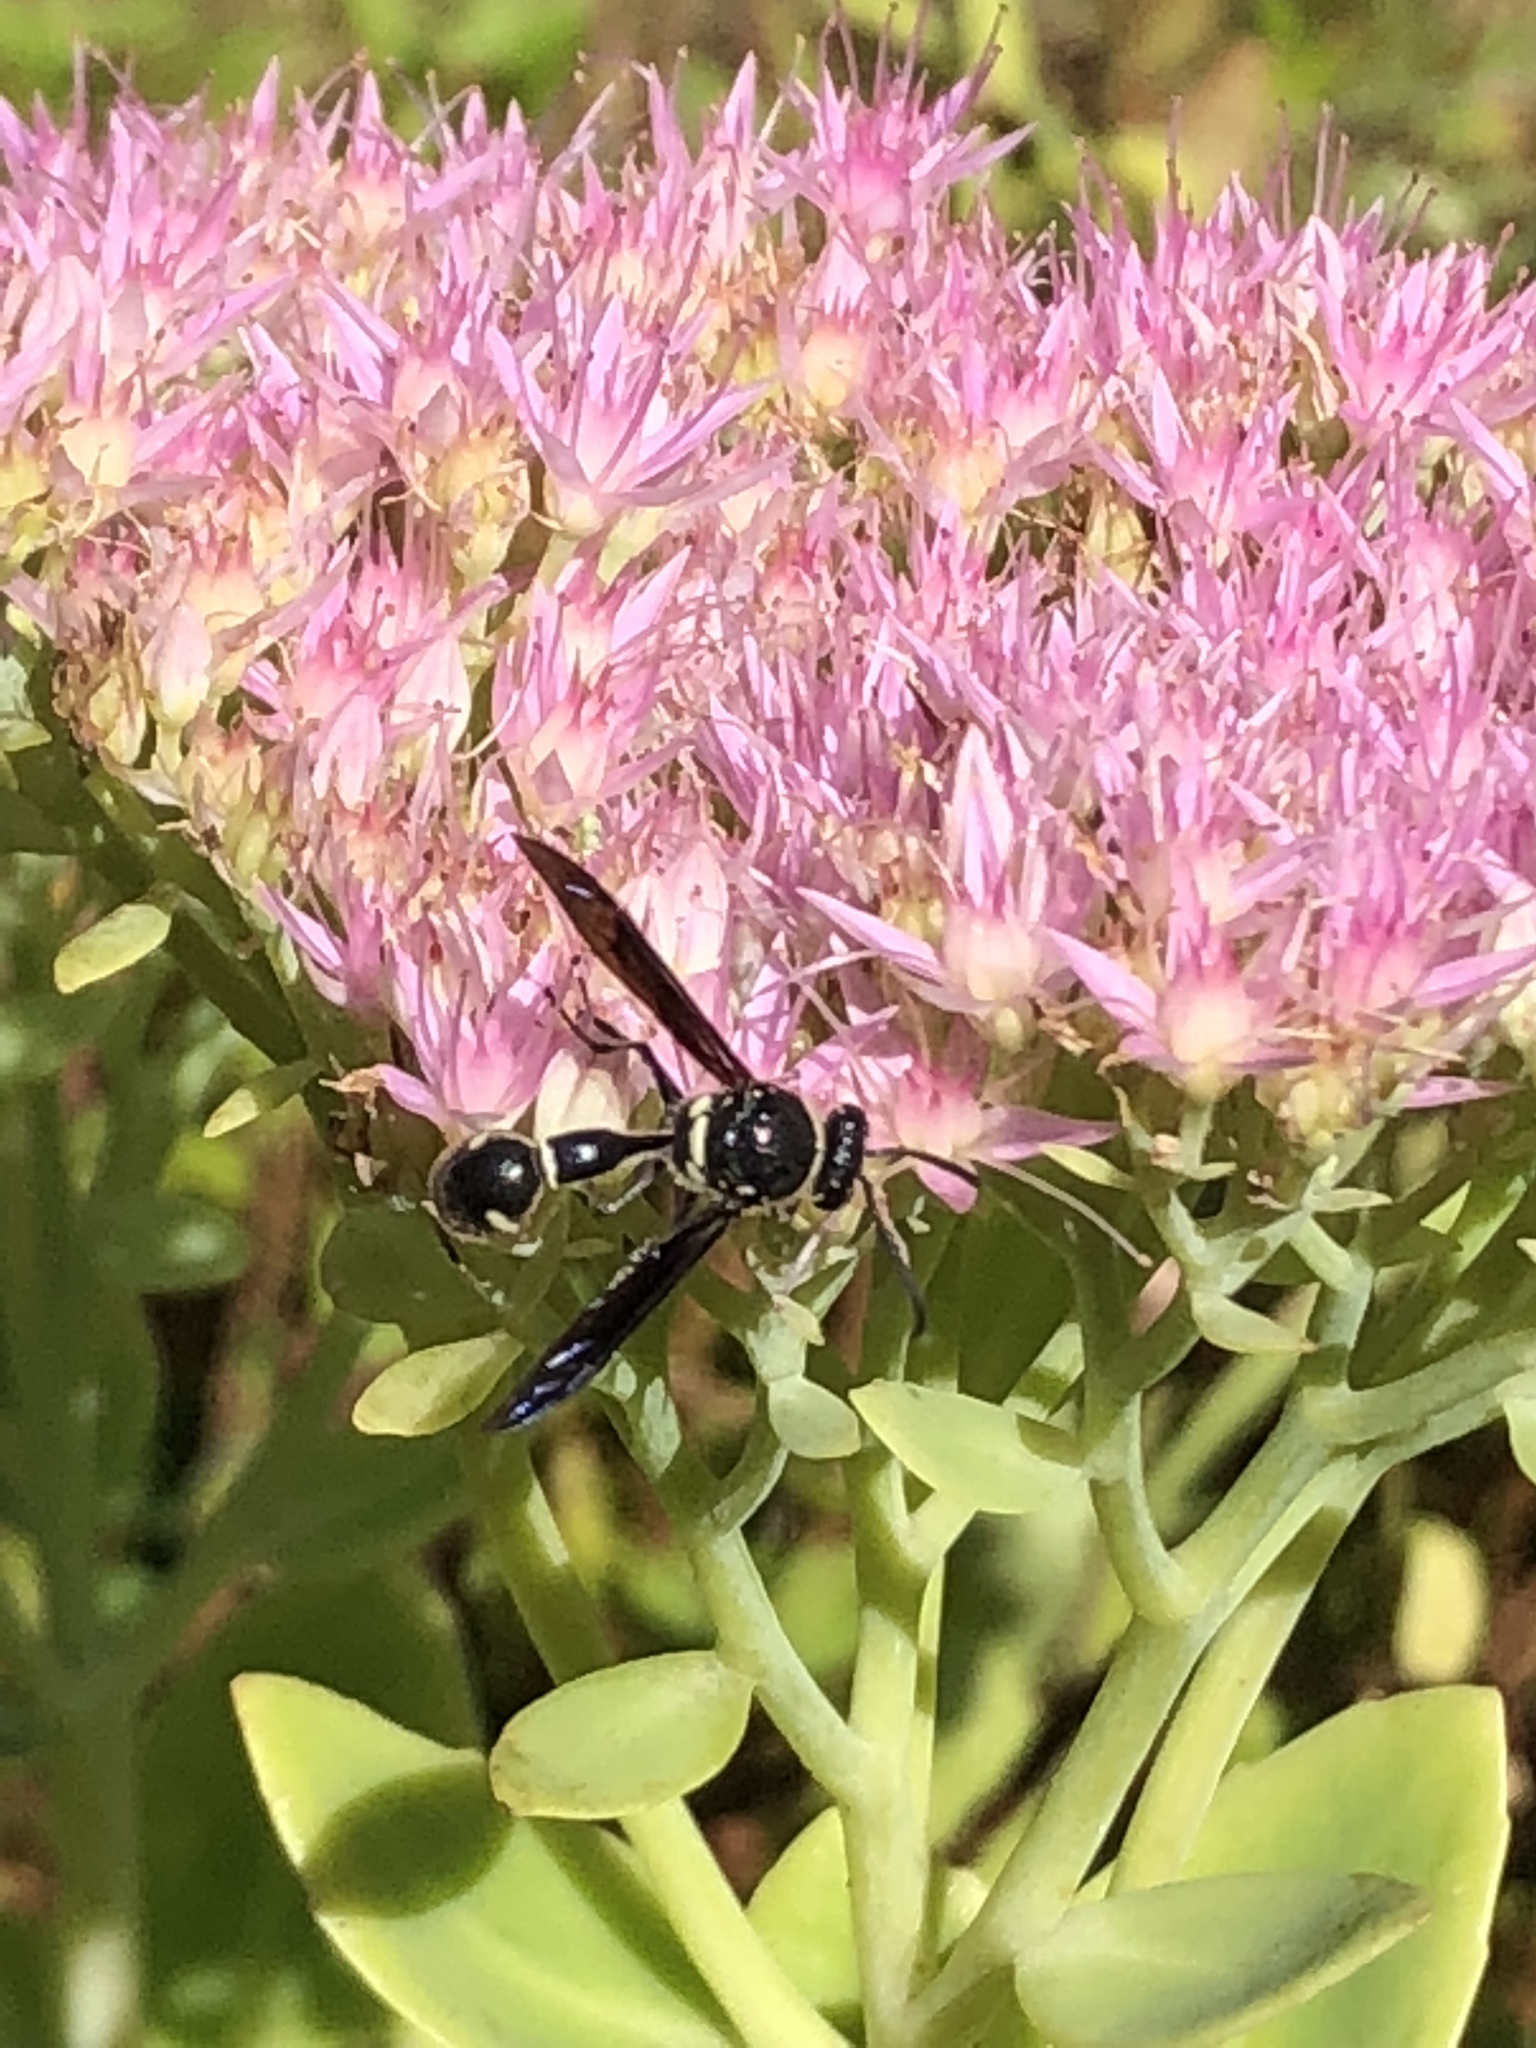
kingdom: Animalia
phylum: Arthropoda
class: Insecta
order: Hymenoptera
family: Vespidae
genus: Eumenes
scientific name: Eumenes fraternus
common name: Fraternal potter wasp
